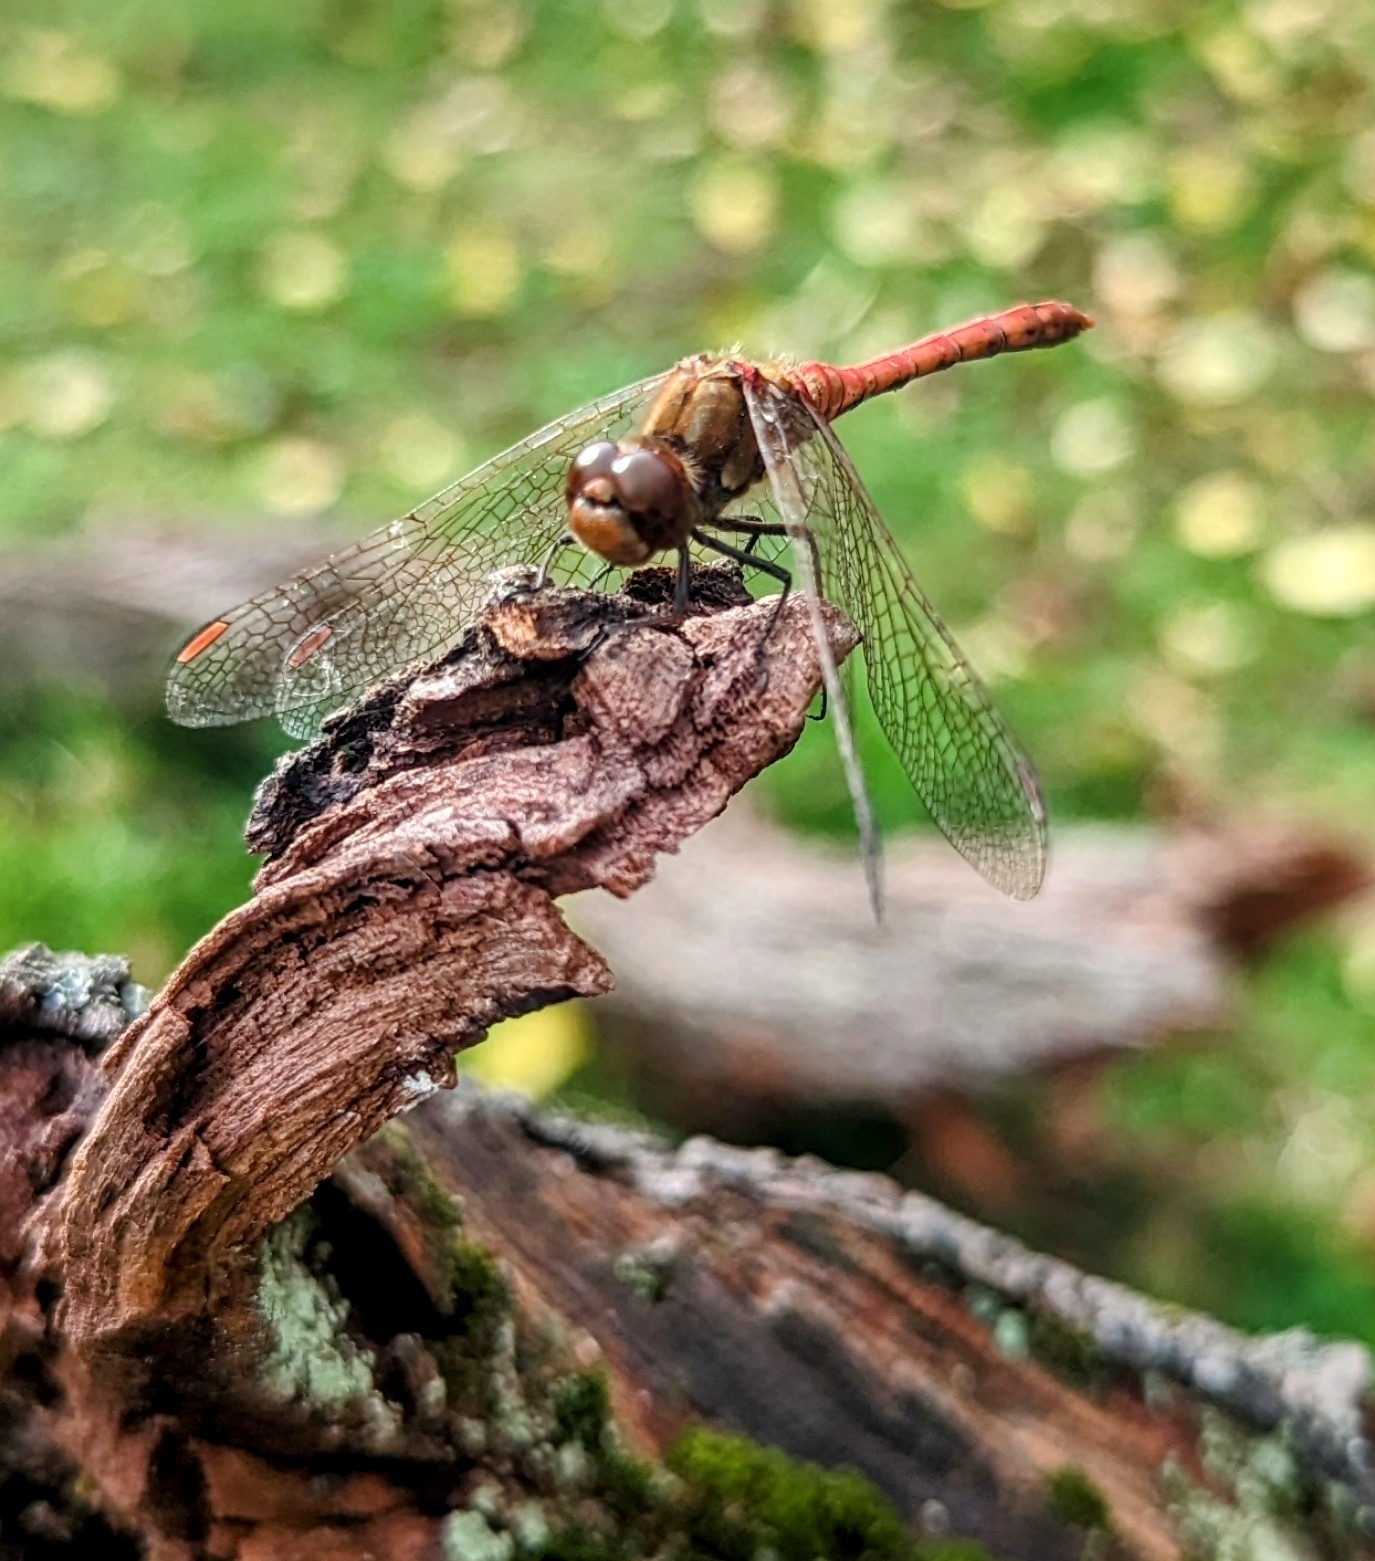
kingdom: Animalia
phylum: Arthropoda
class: Insecta
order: Odonata
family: Libellulidae
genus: Sympetrum
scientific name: Sympetrum striolatum
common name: Common darter
